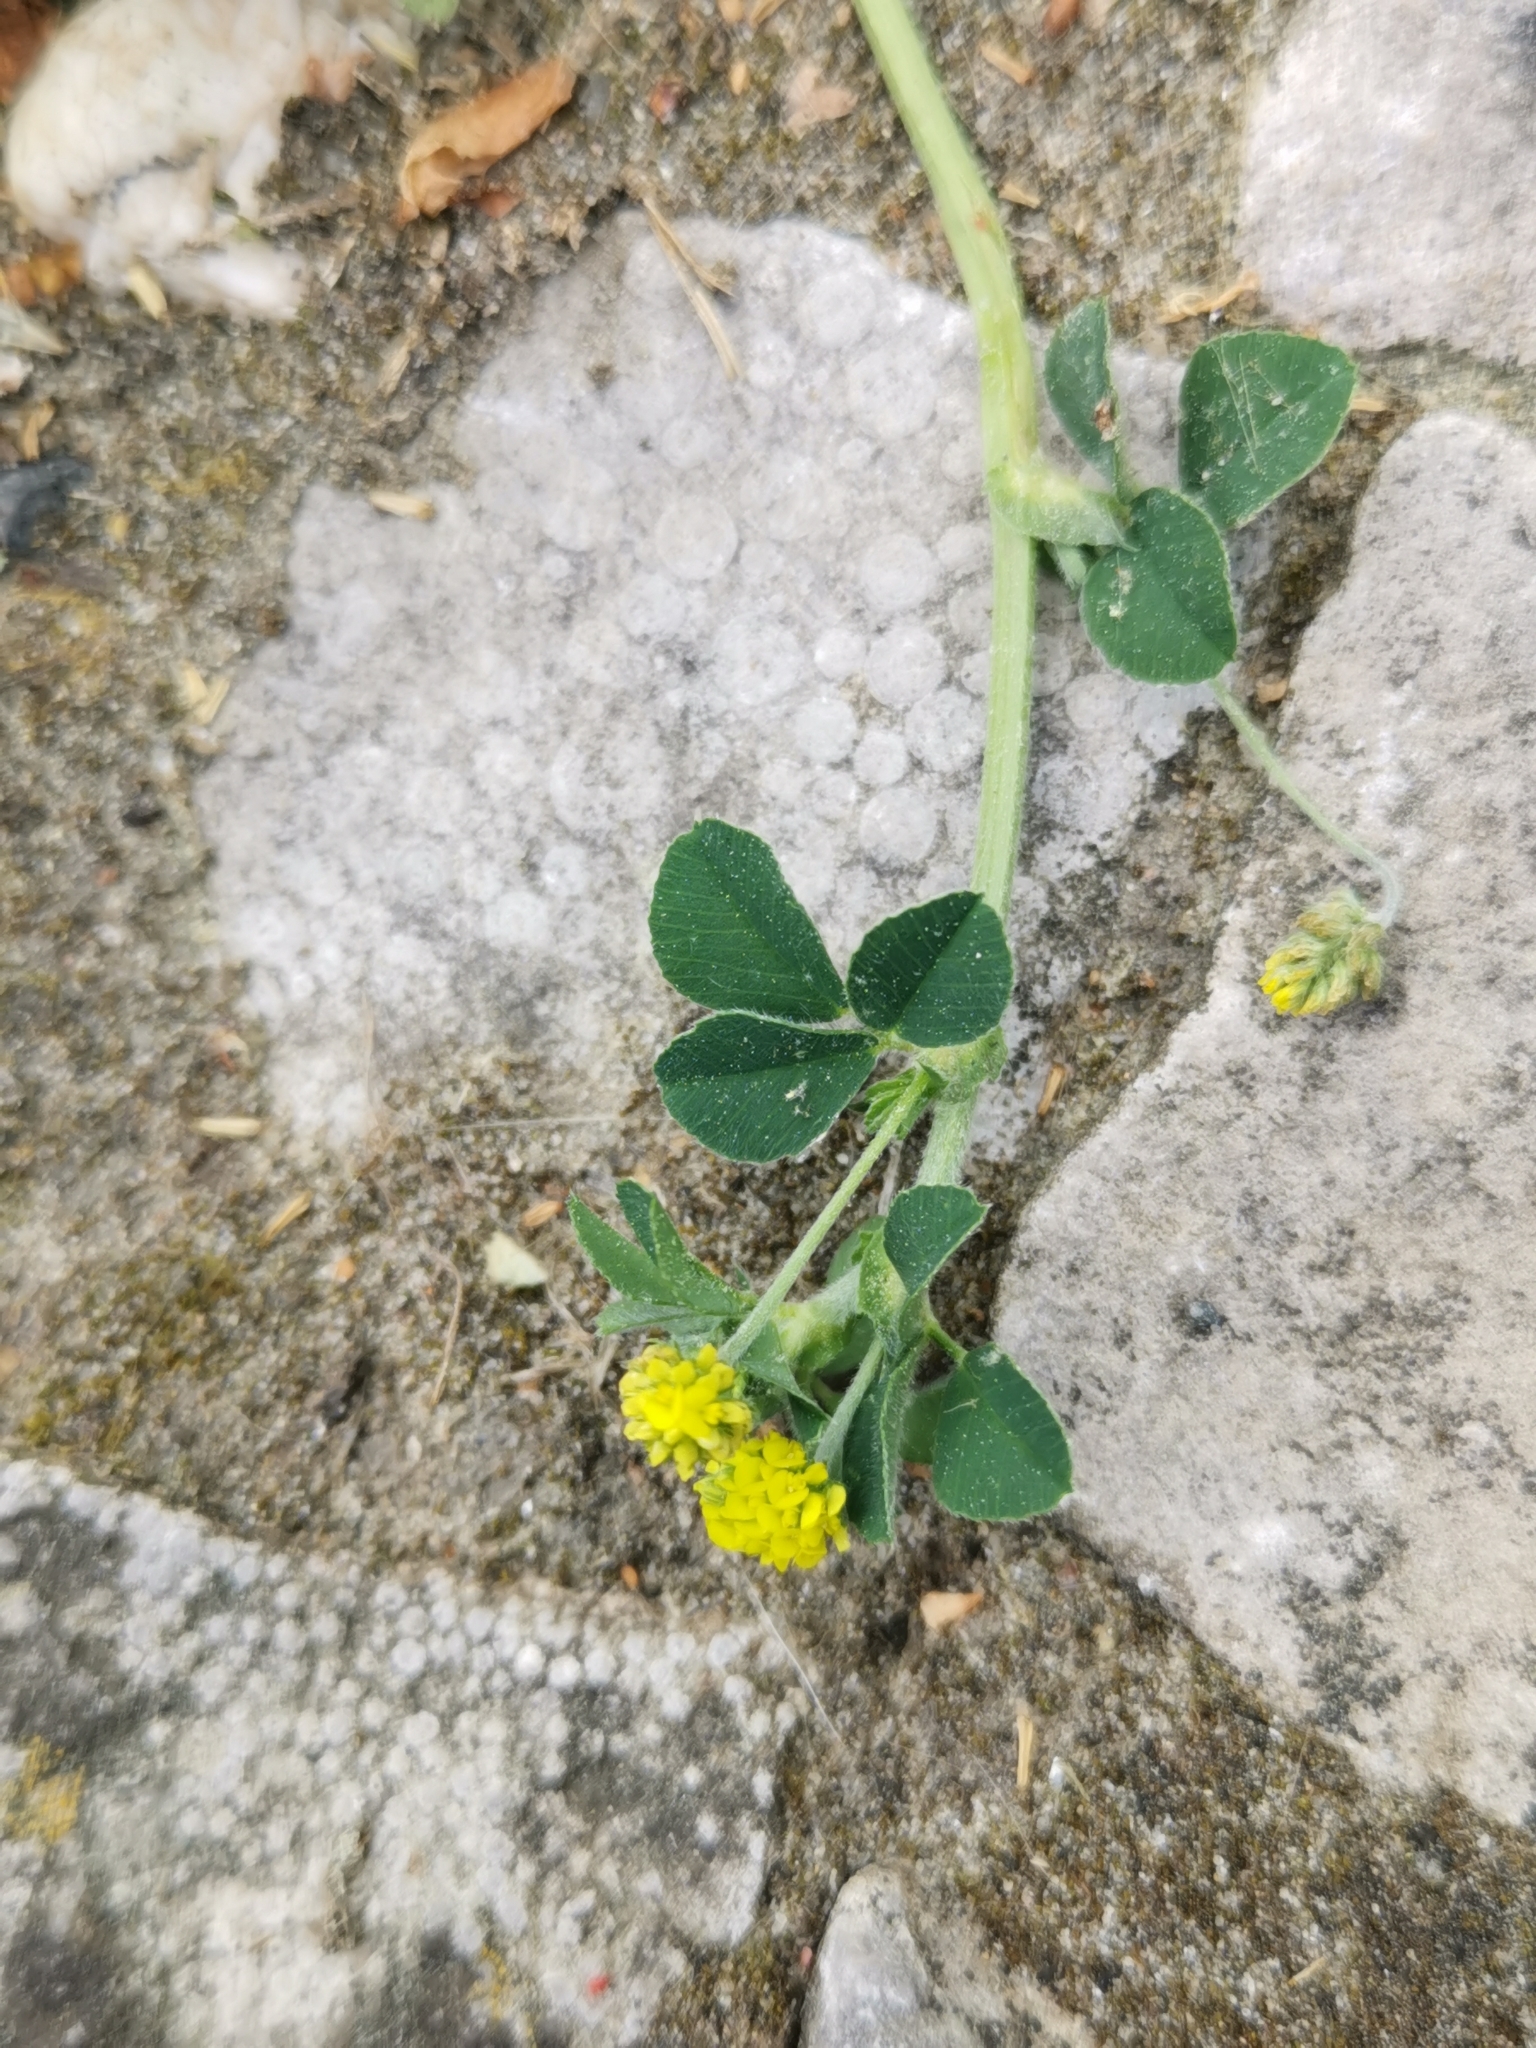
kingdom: Plantae
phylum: Tracheophyta
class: Magnoliopsida
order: Fabales
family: Fabaceae
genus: Medicago
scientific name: Medicago lupulina
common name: Black medick
